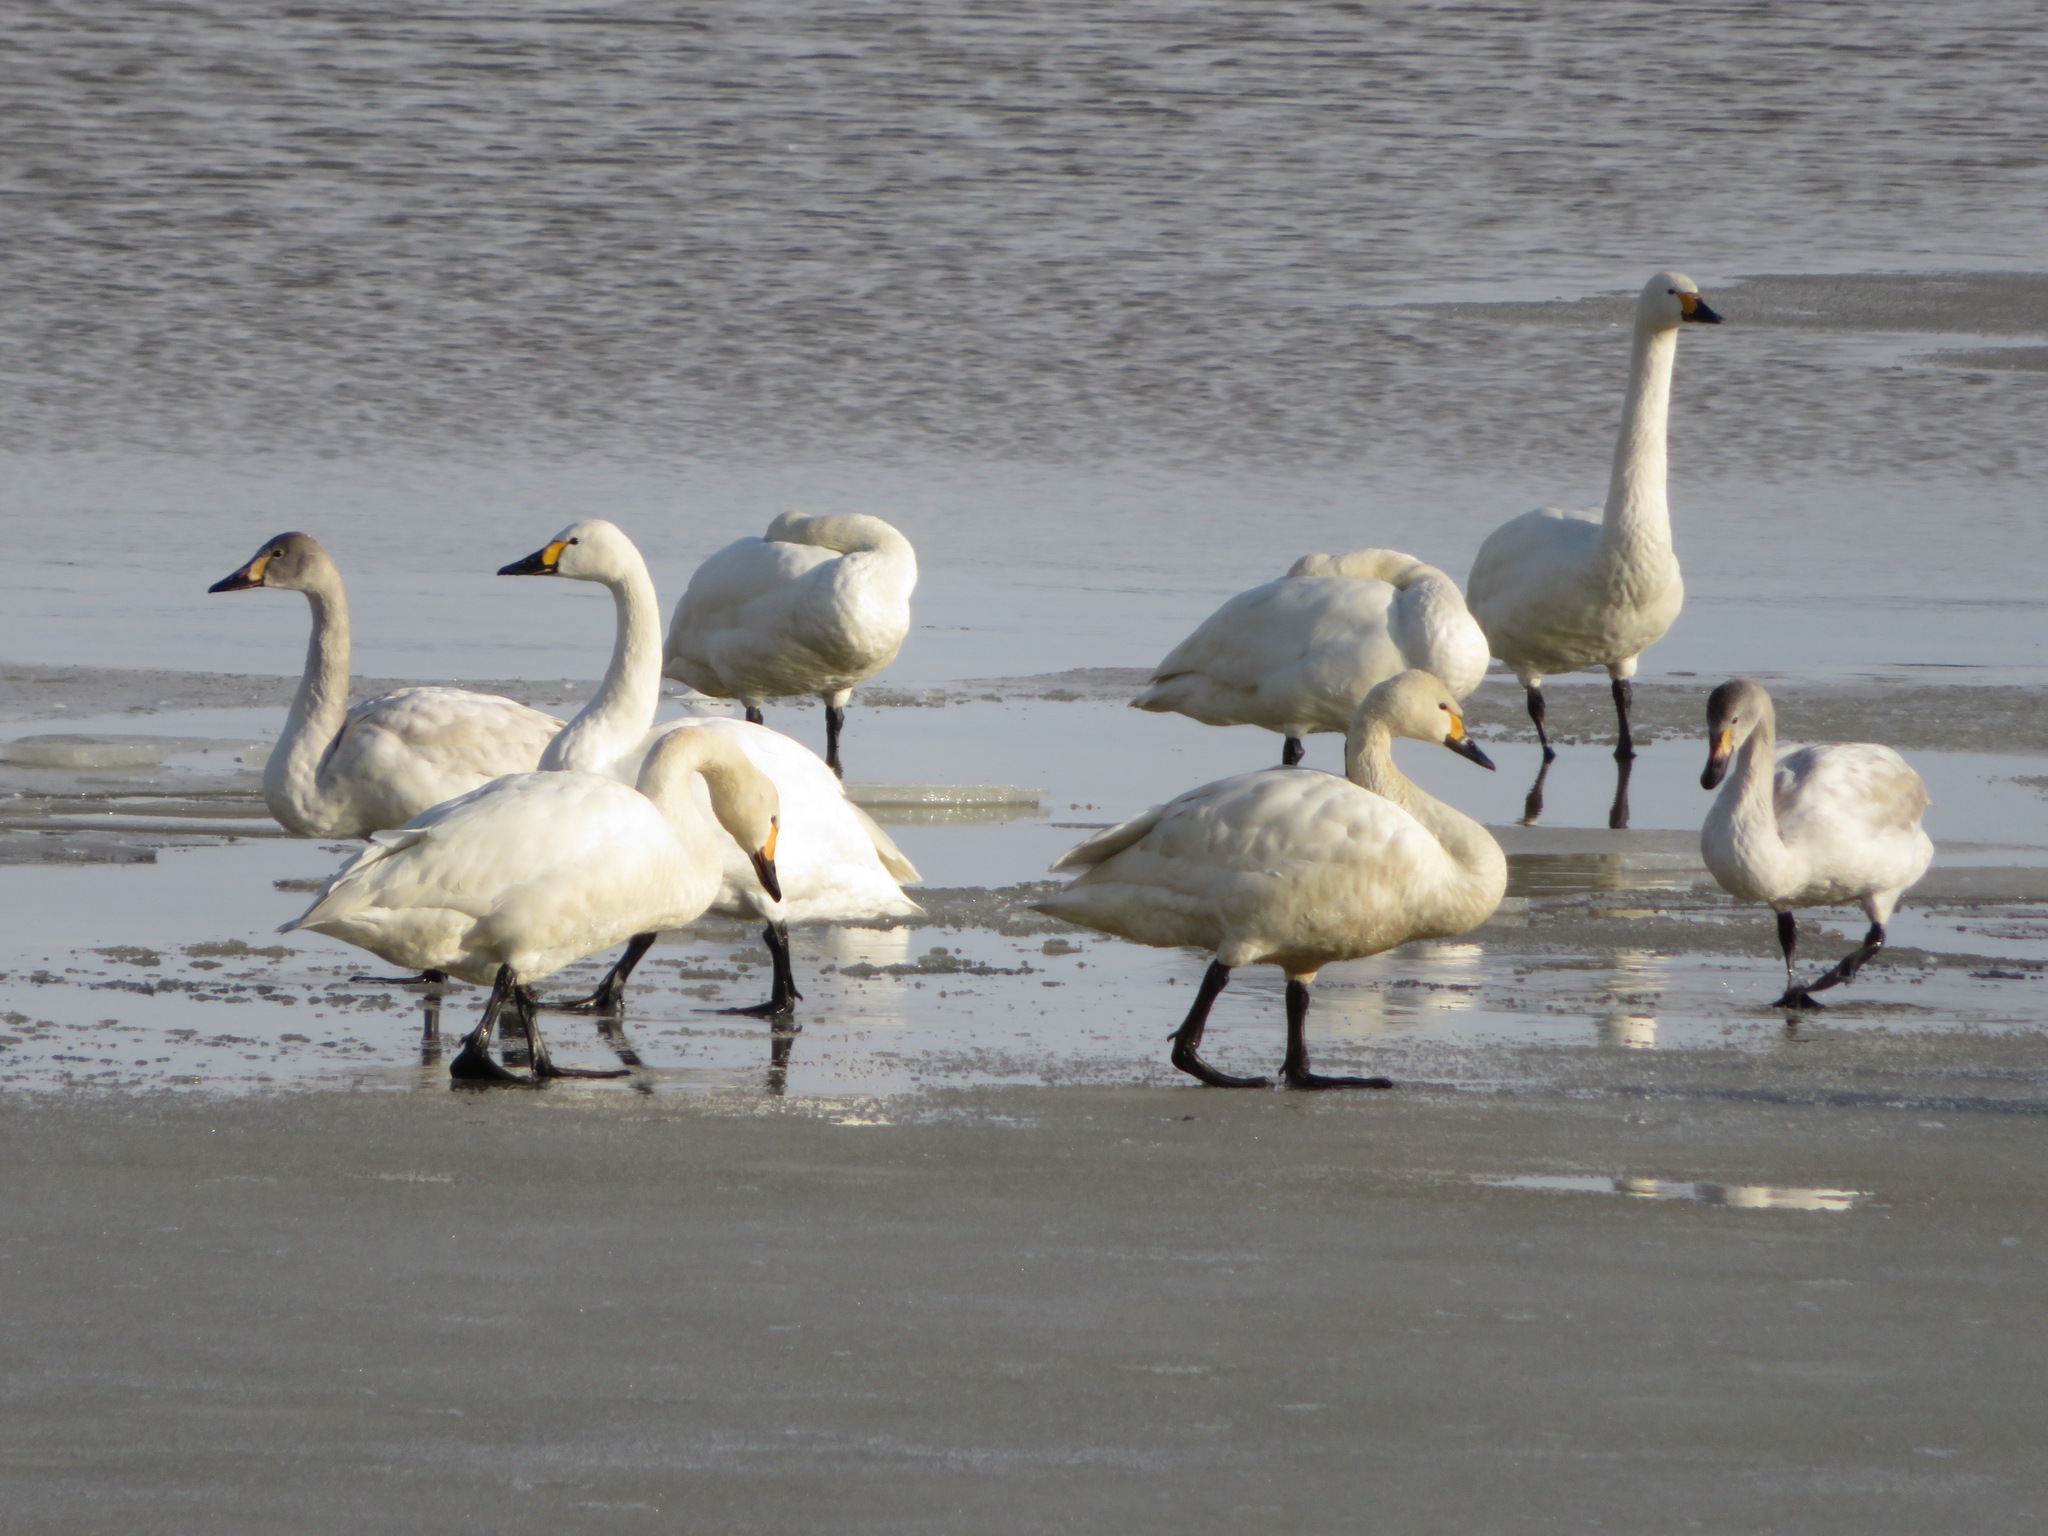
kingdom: Animalia
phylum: Chordata
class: Aves
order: Anseriformes
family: Anatidae
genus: Cygnus
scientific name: Cygnus columbianus
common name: Tundra swan
